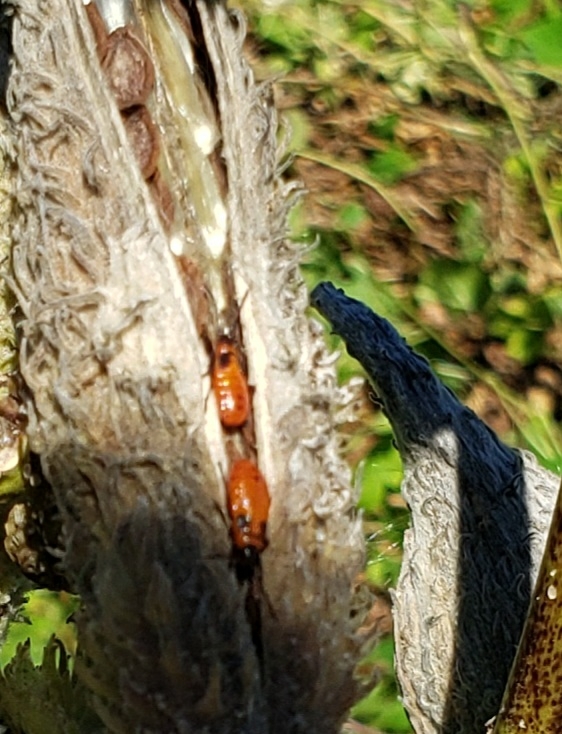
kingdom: Animalia
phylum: Arthropoda
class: Insecta
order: Hemiptera
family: Lygaeidae
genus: Oncopeltus
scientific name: Oncopeltus fasciatus
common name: Large milkweed bug
